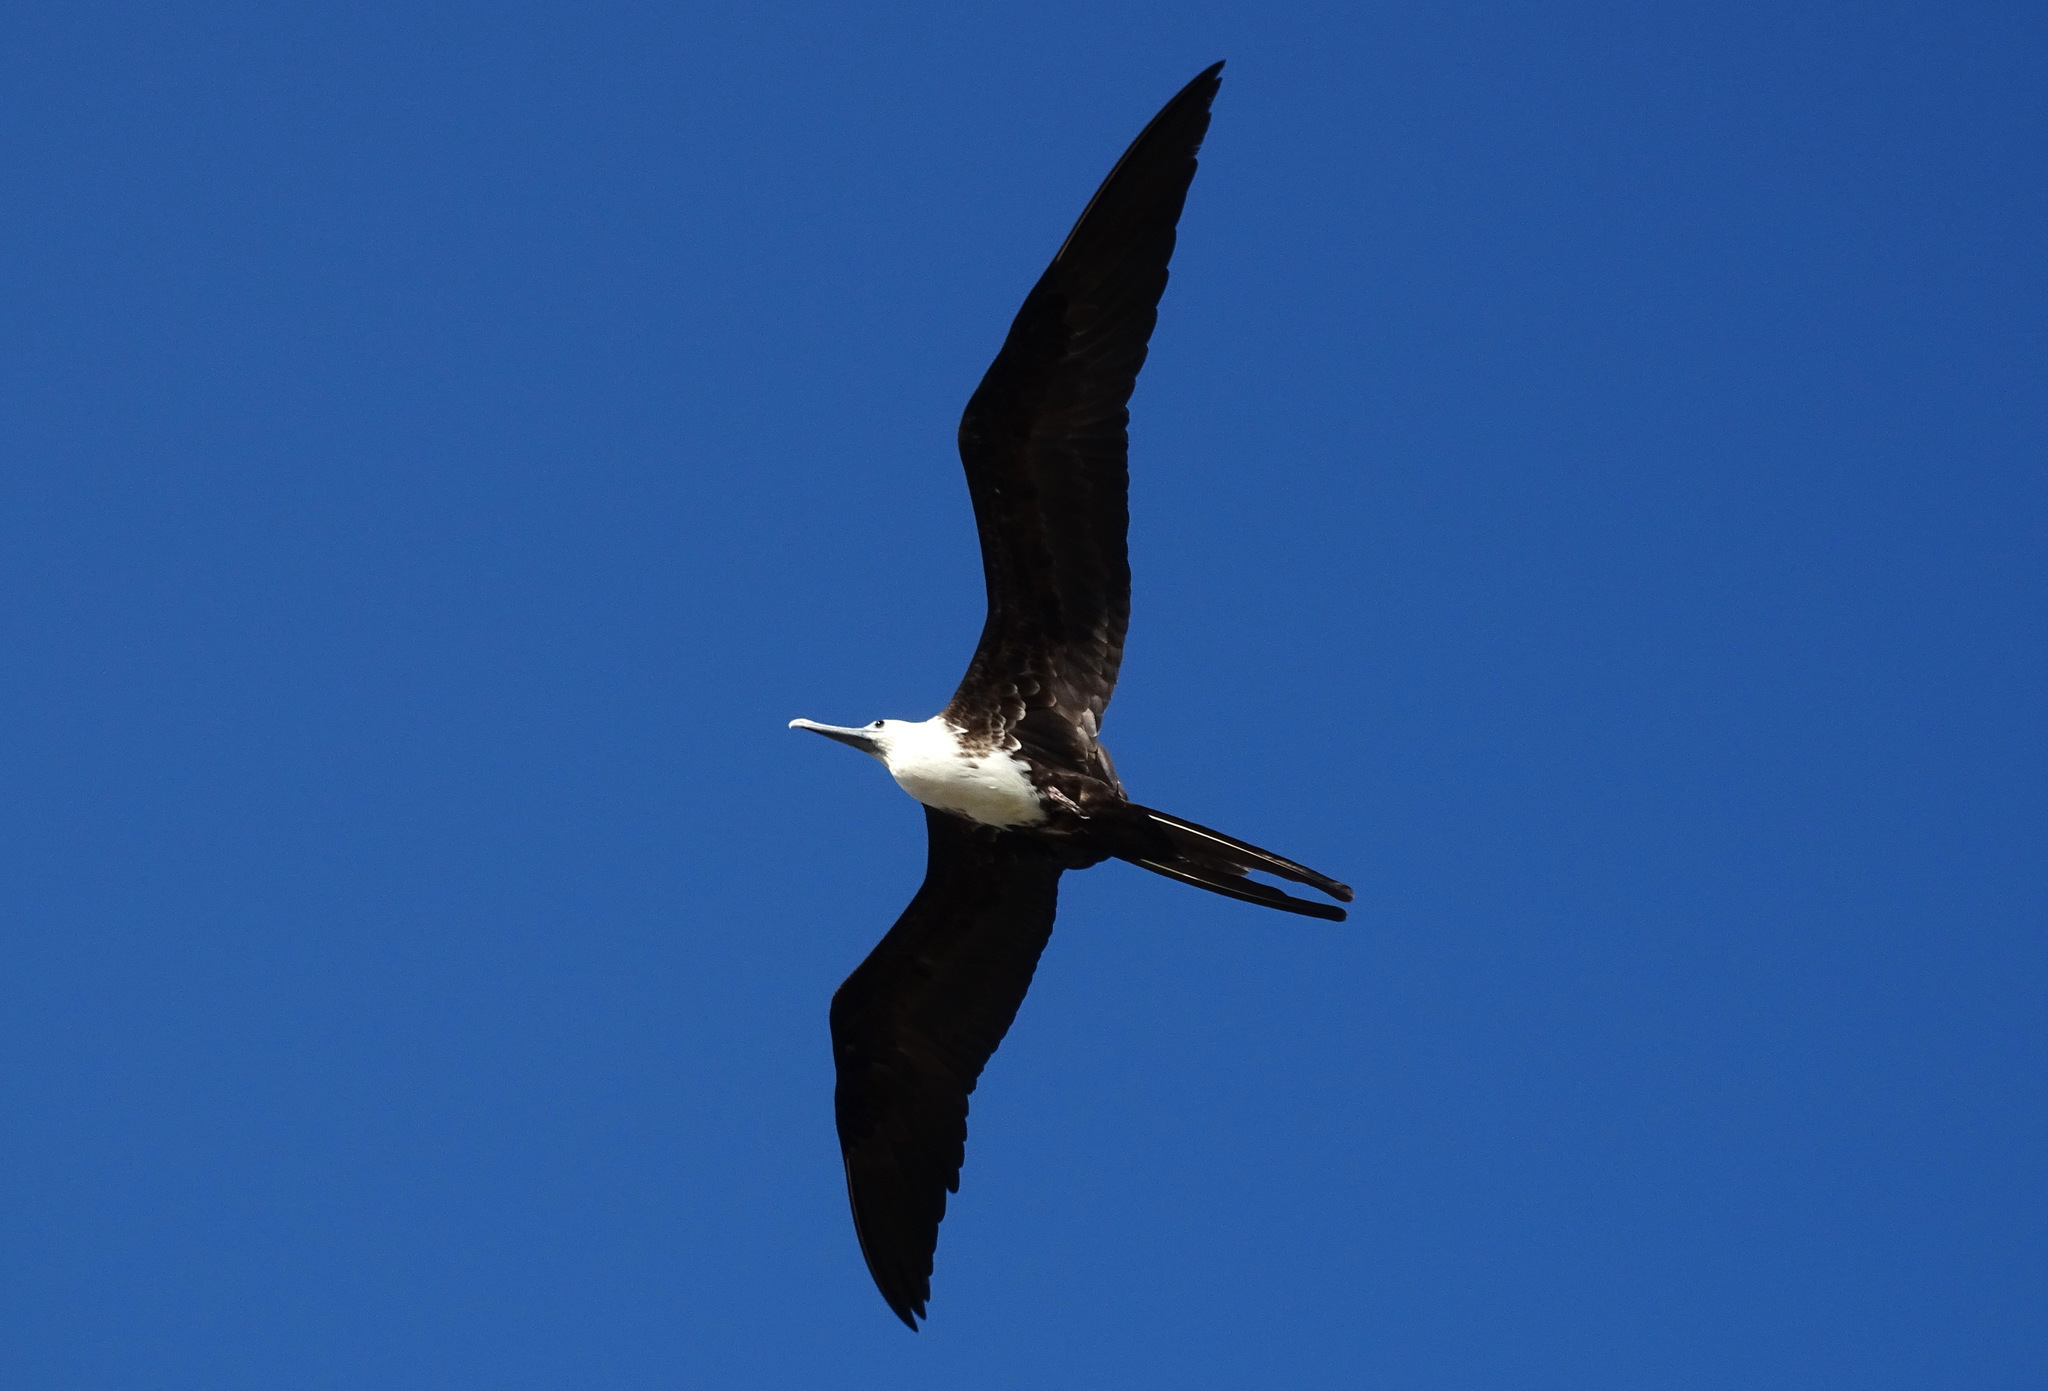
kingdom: Animalia
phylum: Chordata
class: Aves
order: Suliformes
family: Fregatidae
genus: Fregata
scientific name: Fregata magnificens
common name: Magnificent frigatebird
